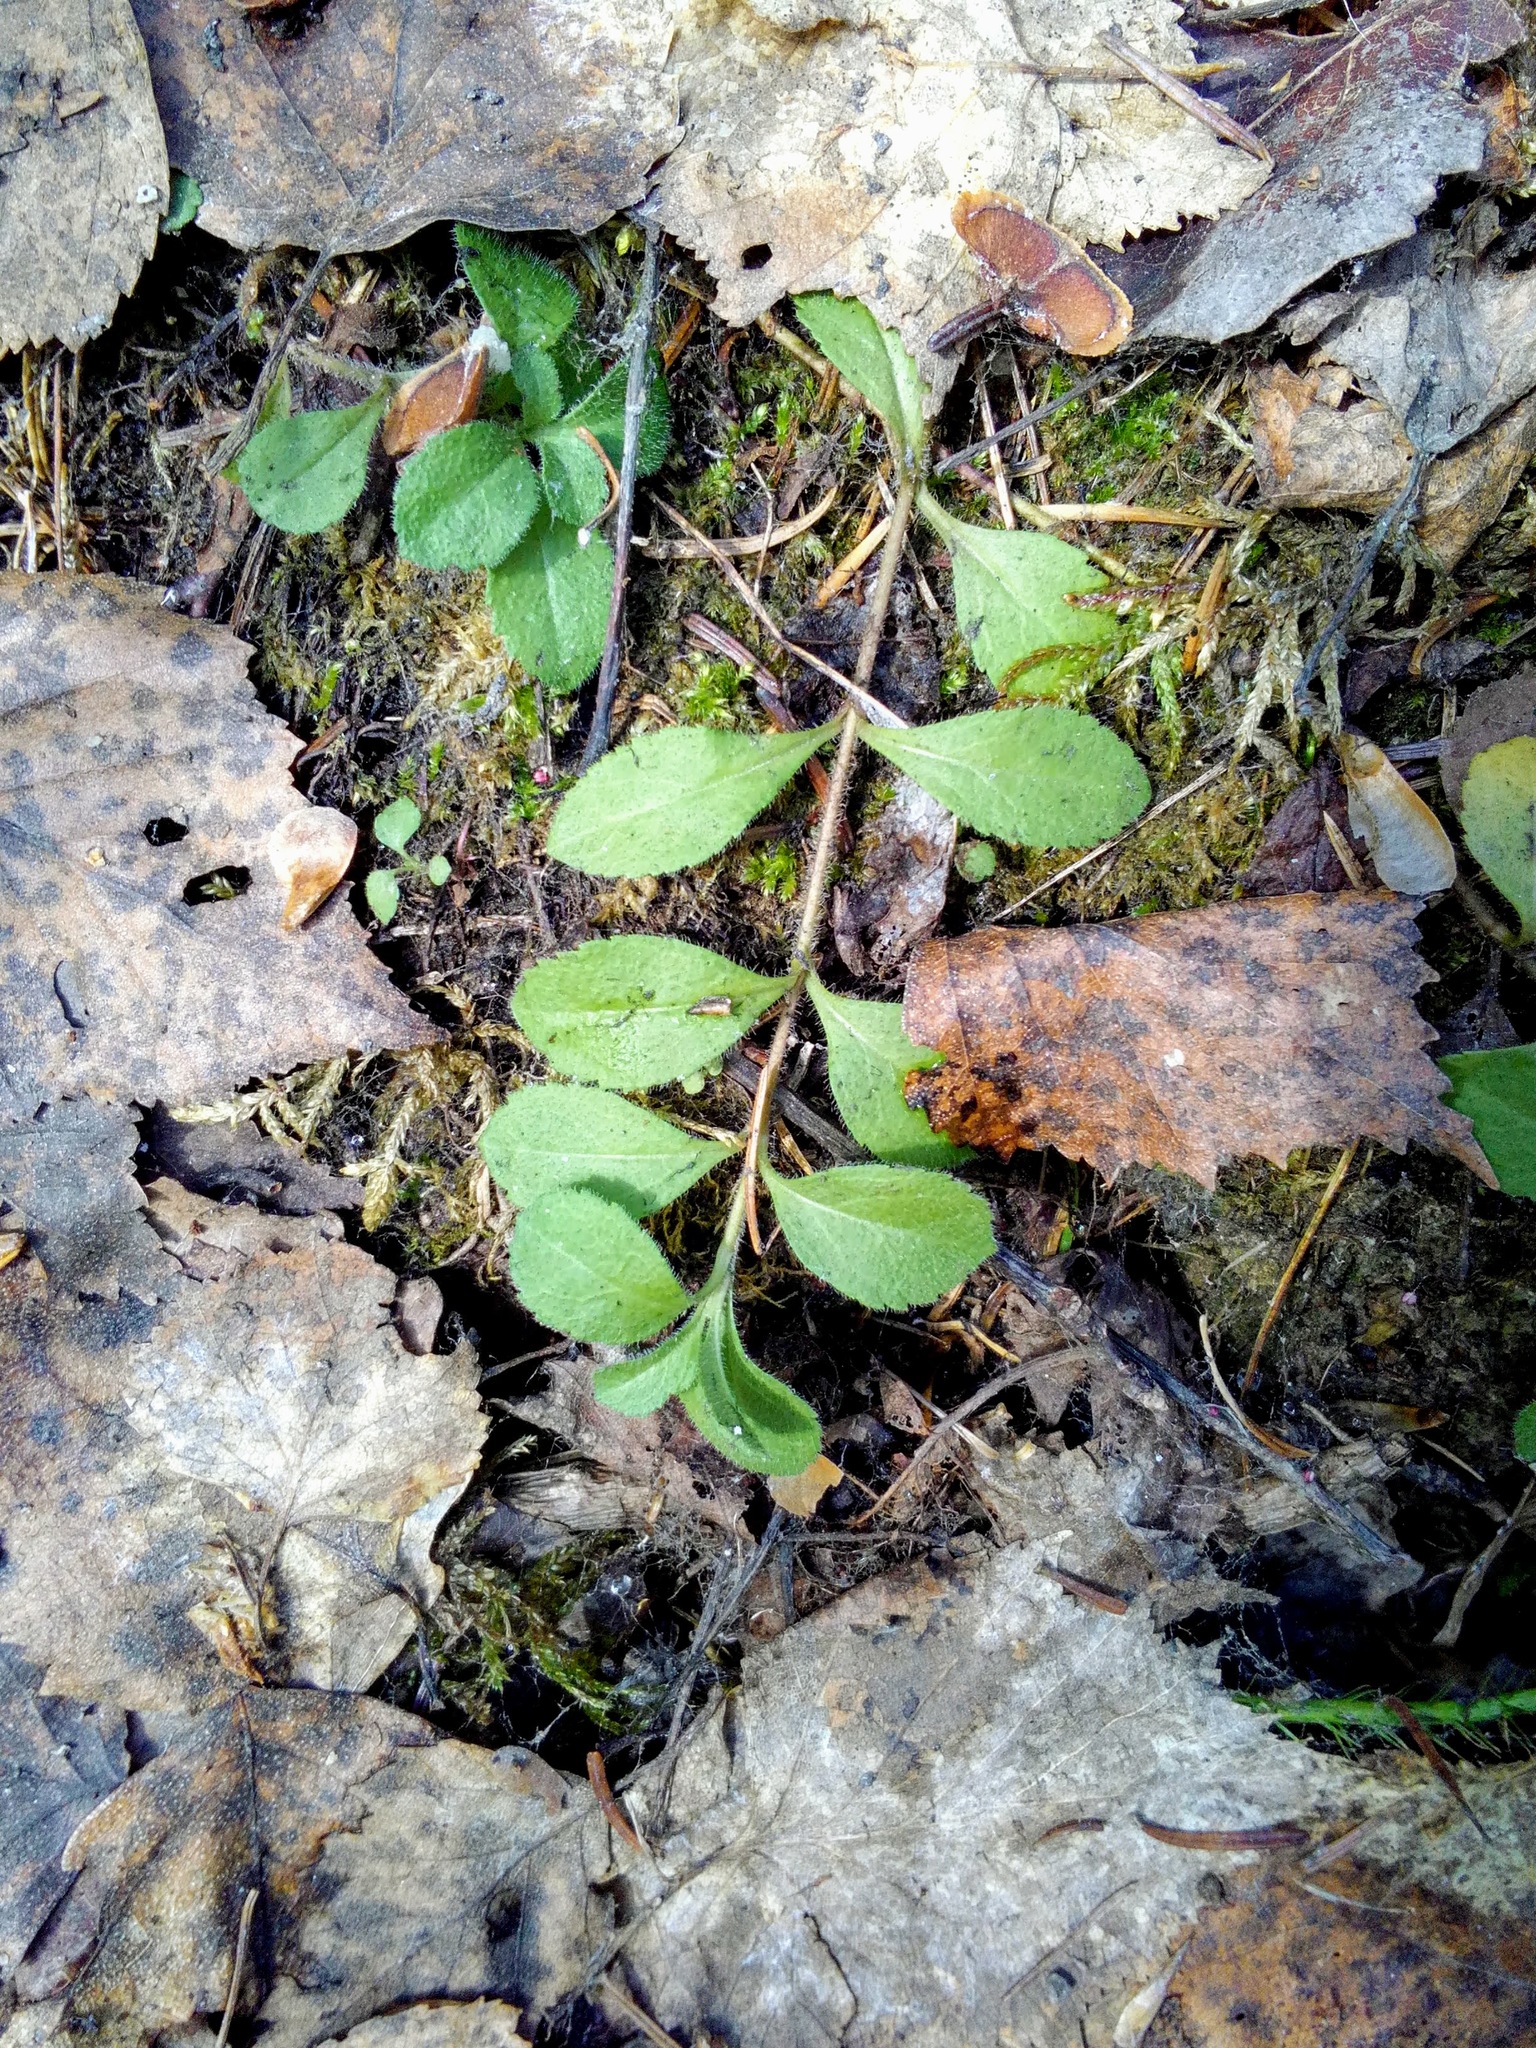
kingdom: Plantae
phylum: Tracheophyta
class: Magnoliopsida
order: Lamiales
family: Plantaginaceae
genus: Veronica
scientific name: Veronica officinalis
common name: Common speedwell
